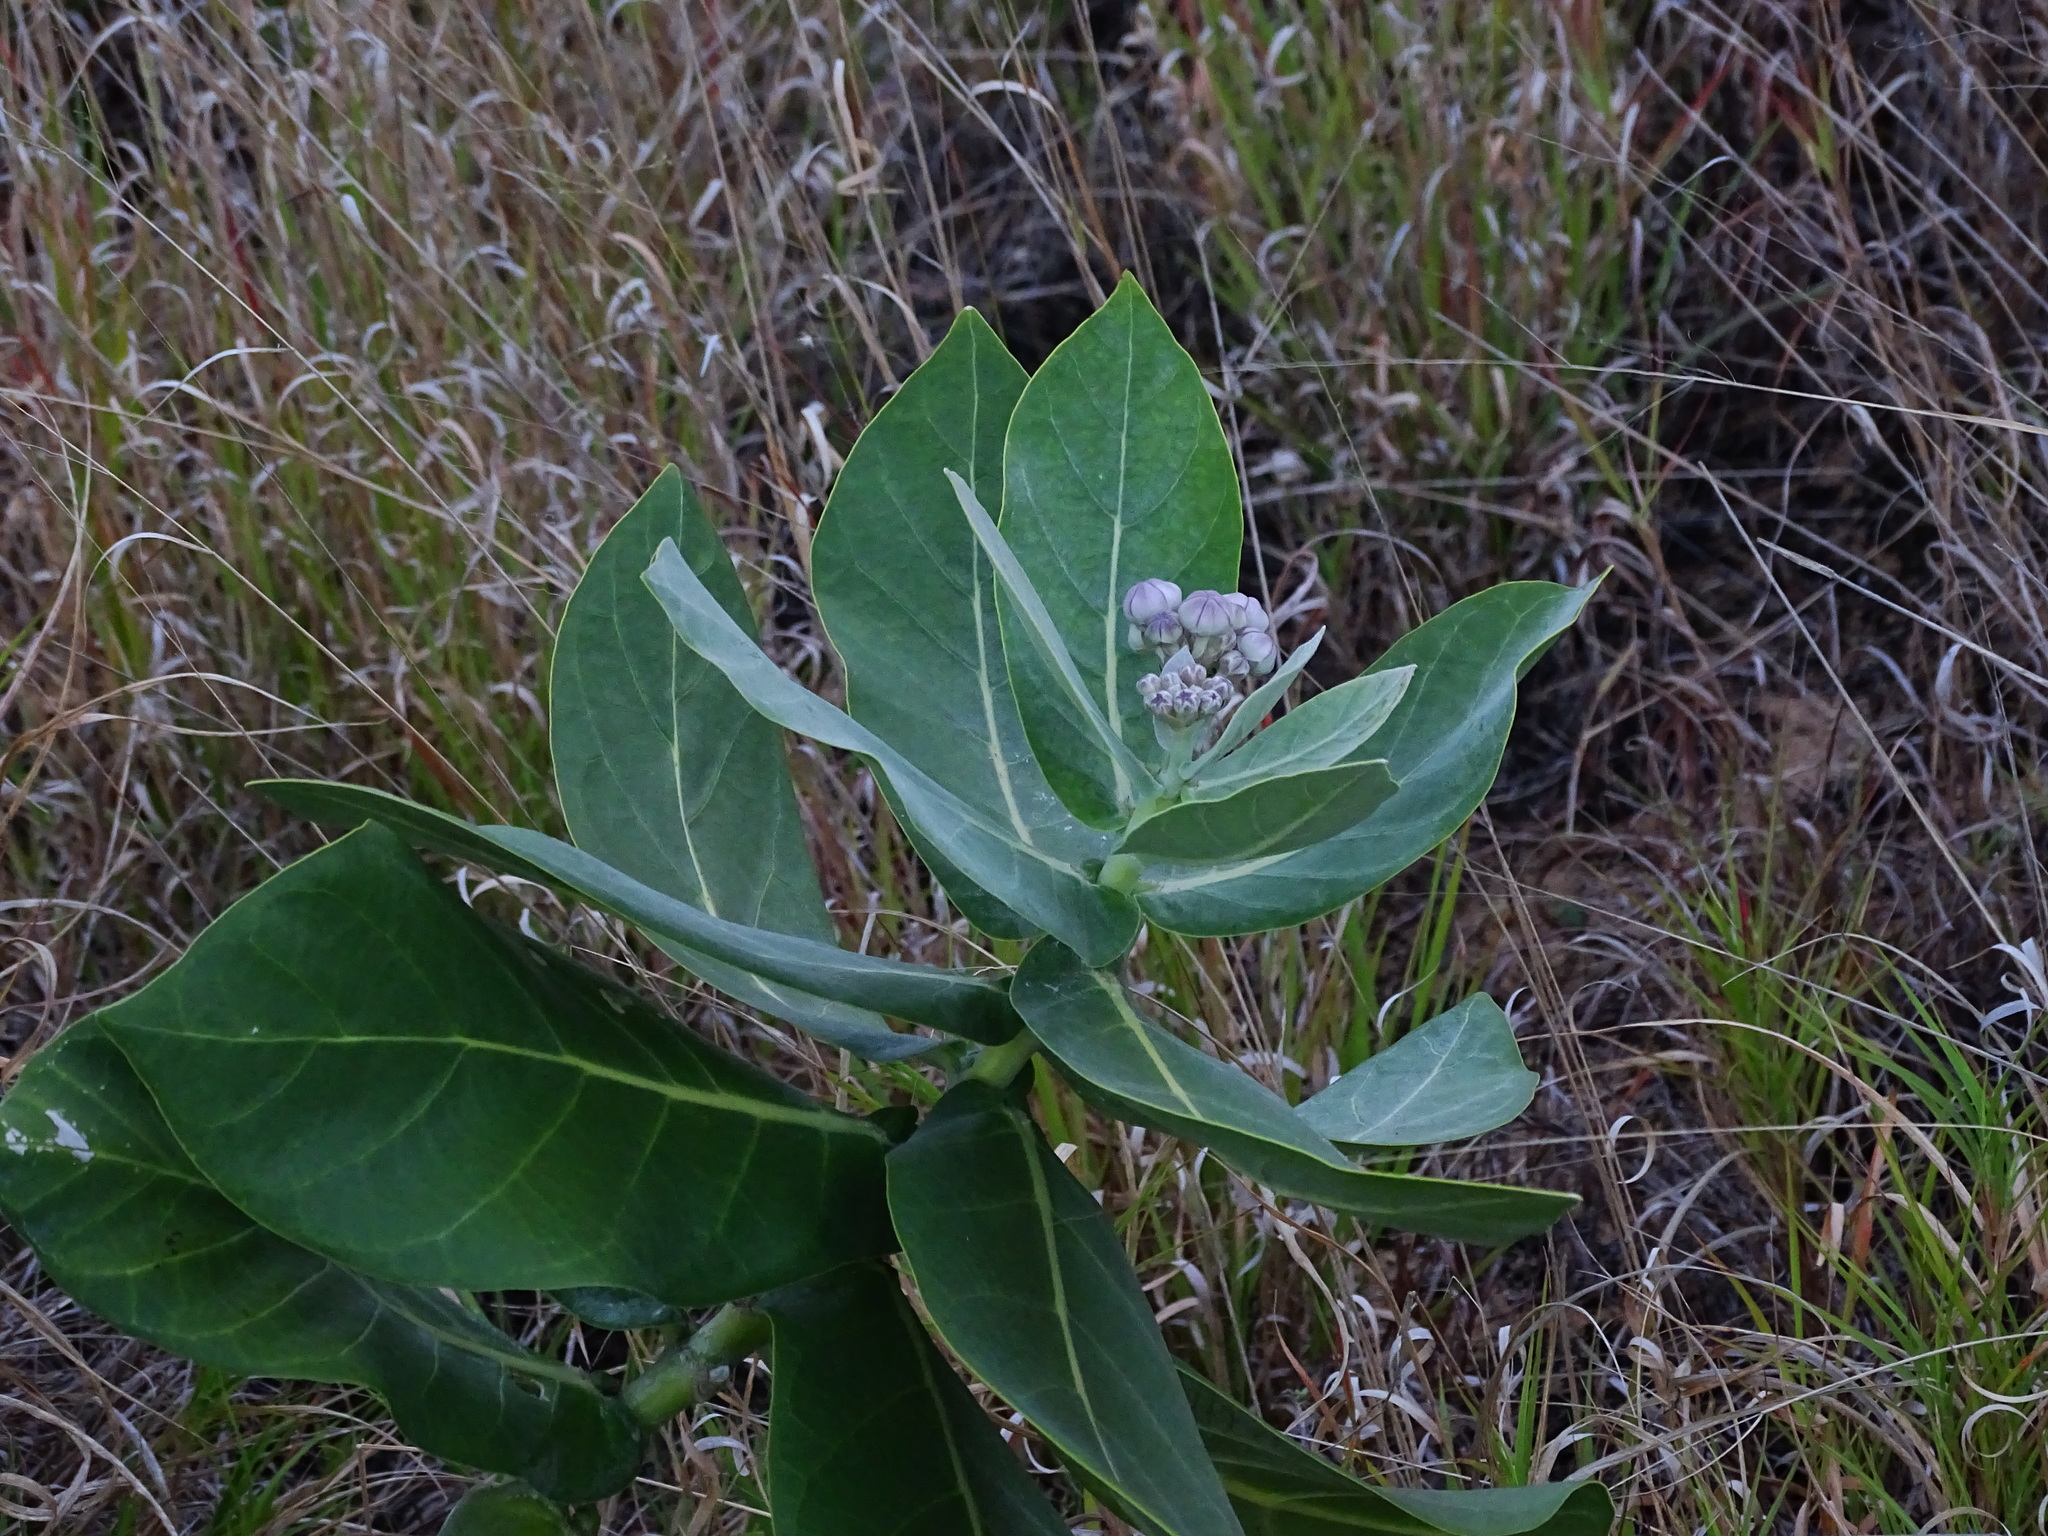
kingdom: Plantae
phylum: Tracheophyta
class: Magnoliopsida
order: Gentianales
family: Apocynaceae
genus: Calotropis
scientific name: Calotropis procera
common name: Roostertree
